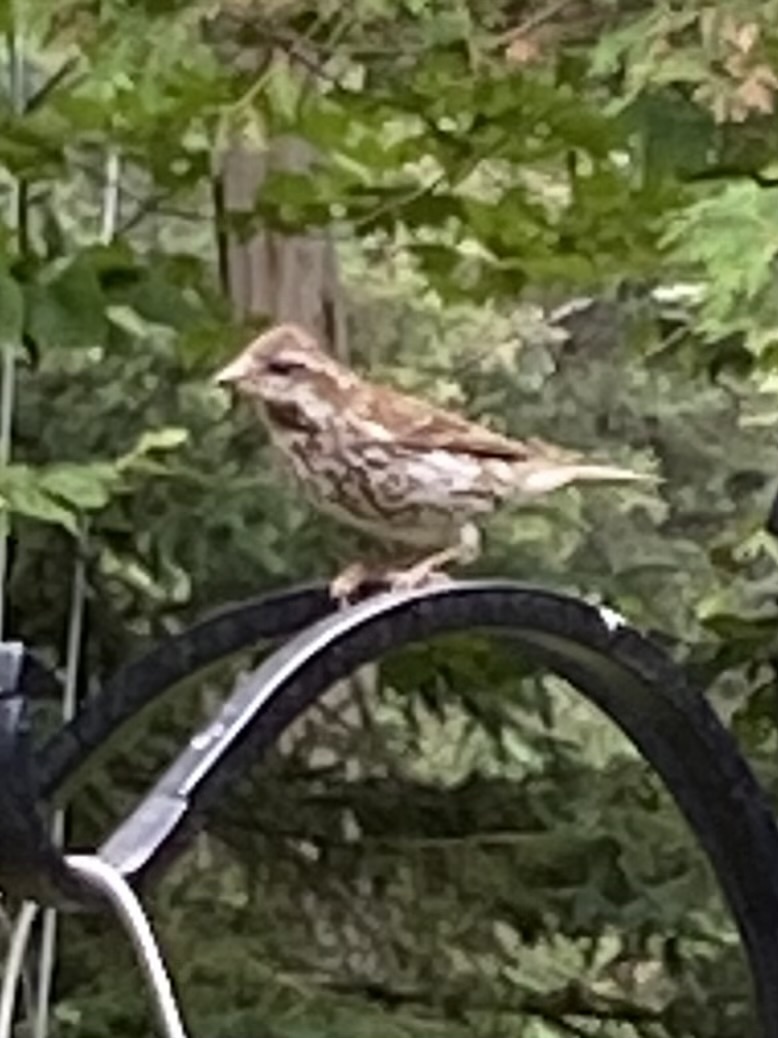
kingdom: Animalia
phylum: Chordata
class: Aves
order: Passeriformes
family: Fringillidae
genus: Haemorhous
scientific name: Haemorhous purpureus
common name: Purple finch
